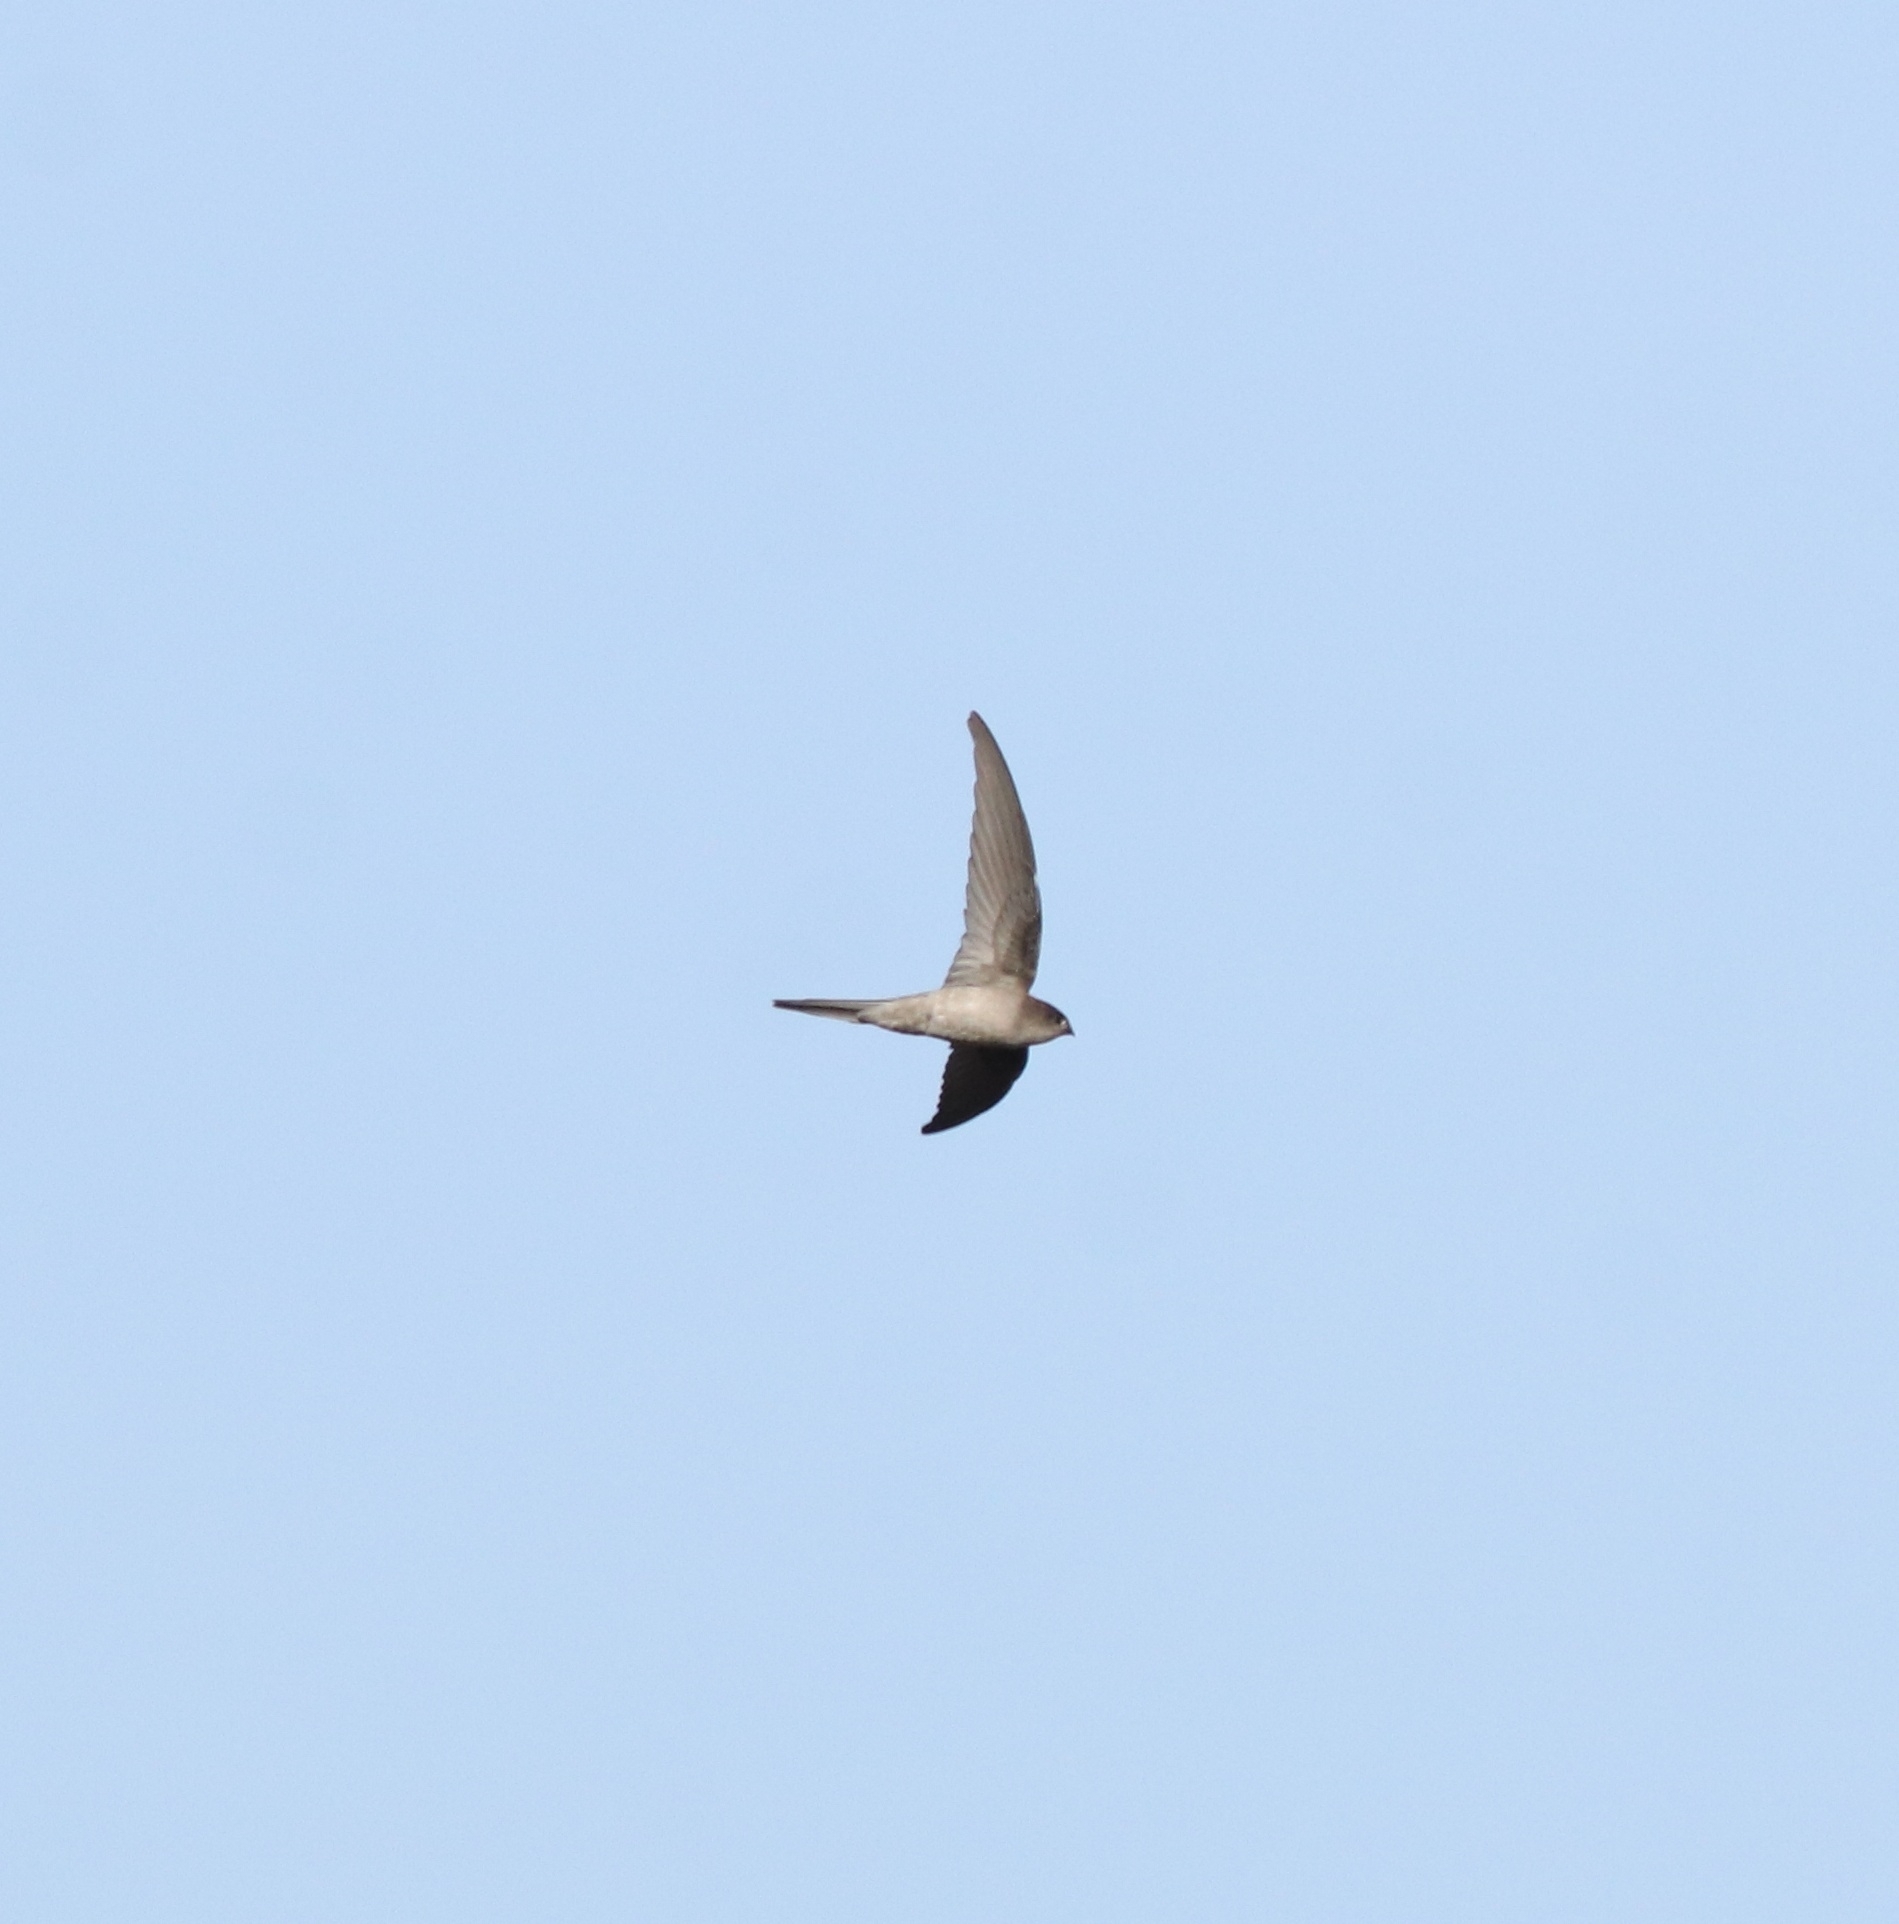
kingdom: Animalia
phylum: Chordata
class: Aves
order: Apodiformes
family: Apodidae
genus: Cypsiurus
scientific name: Cypsiurus balasiensis
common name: Asian palm swift
